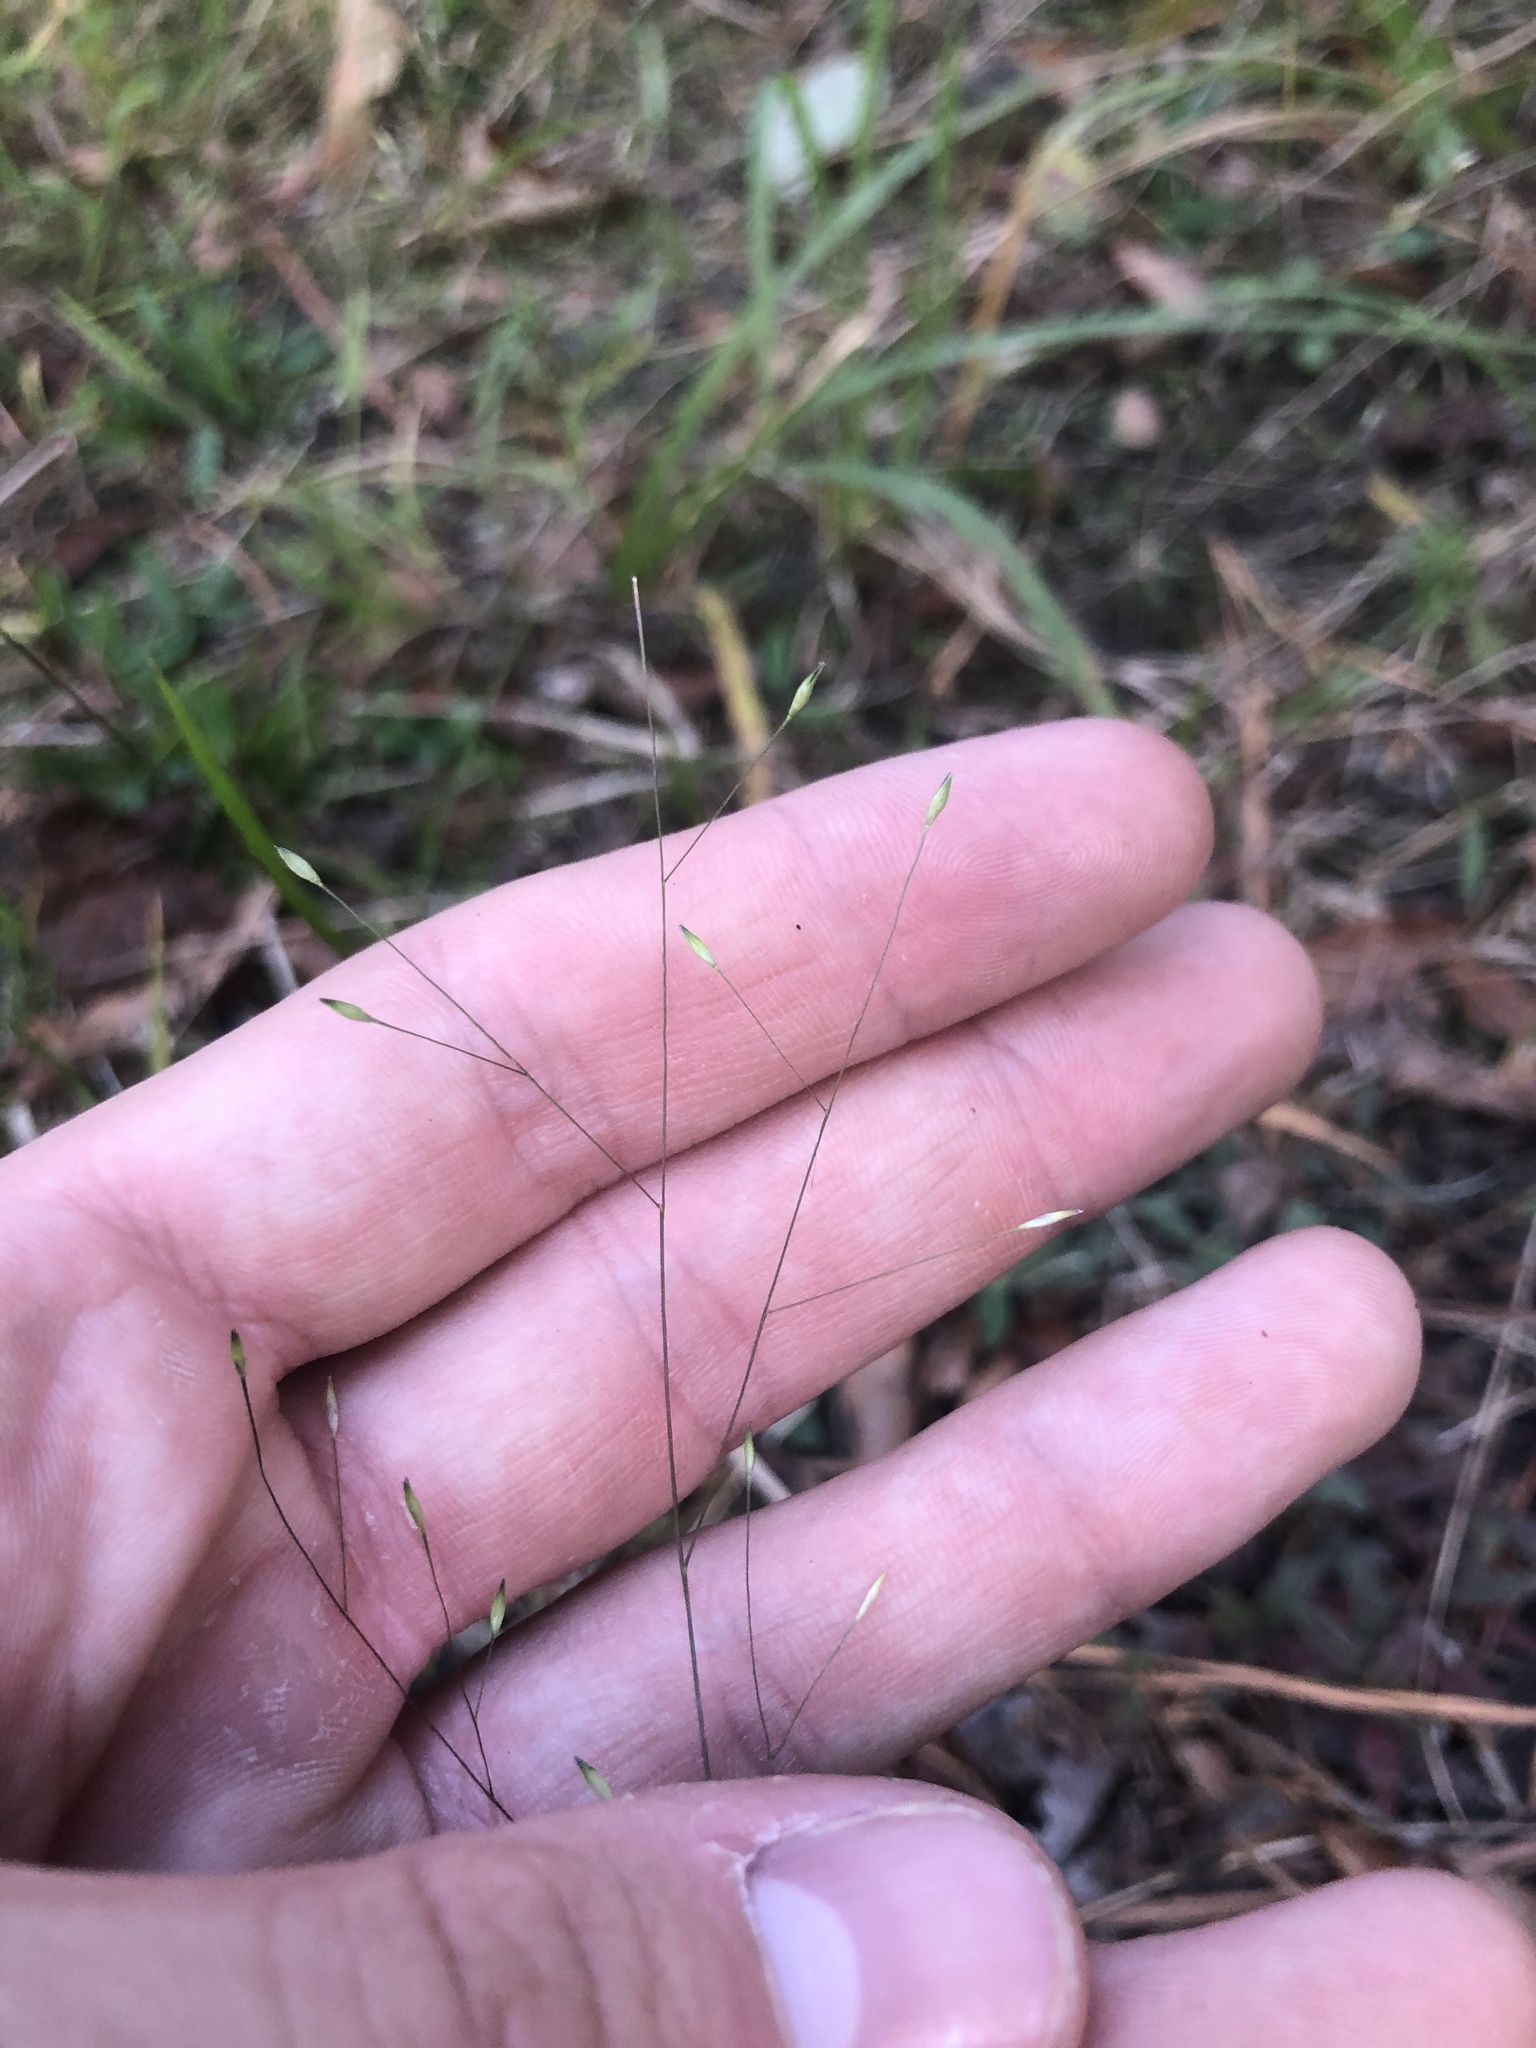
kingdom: Plantae
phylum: Tracheophyta
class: Liliopsida
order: Poales
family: Poaceae
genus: Panicum
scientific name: Panicum flexile
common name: Wiry panicgrass
